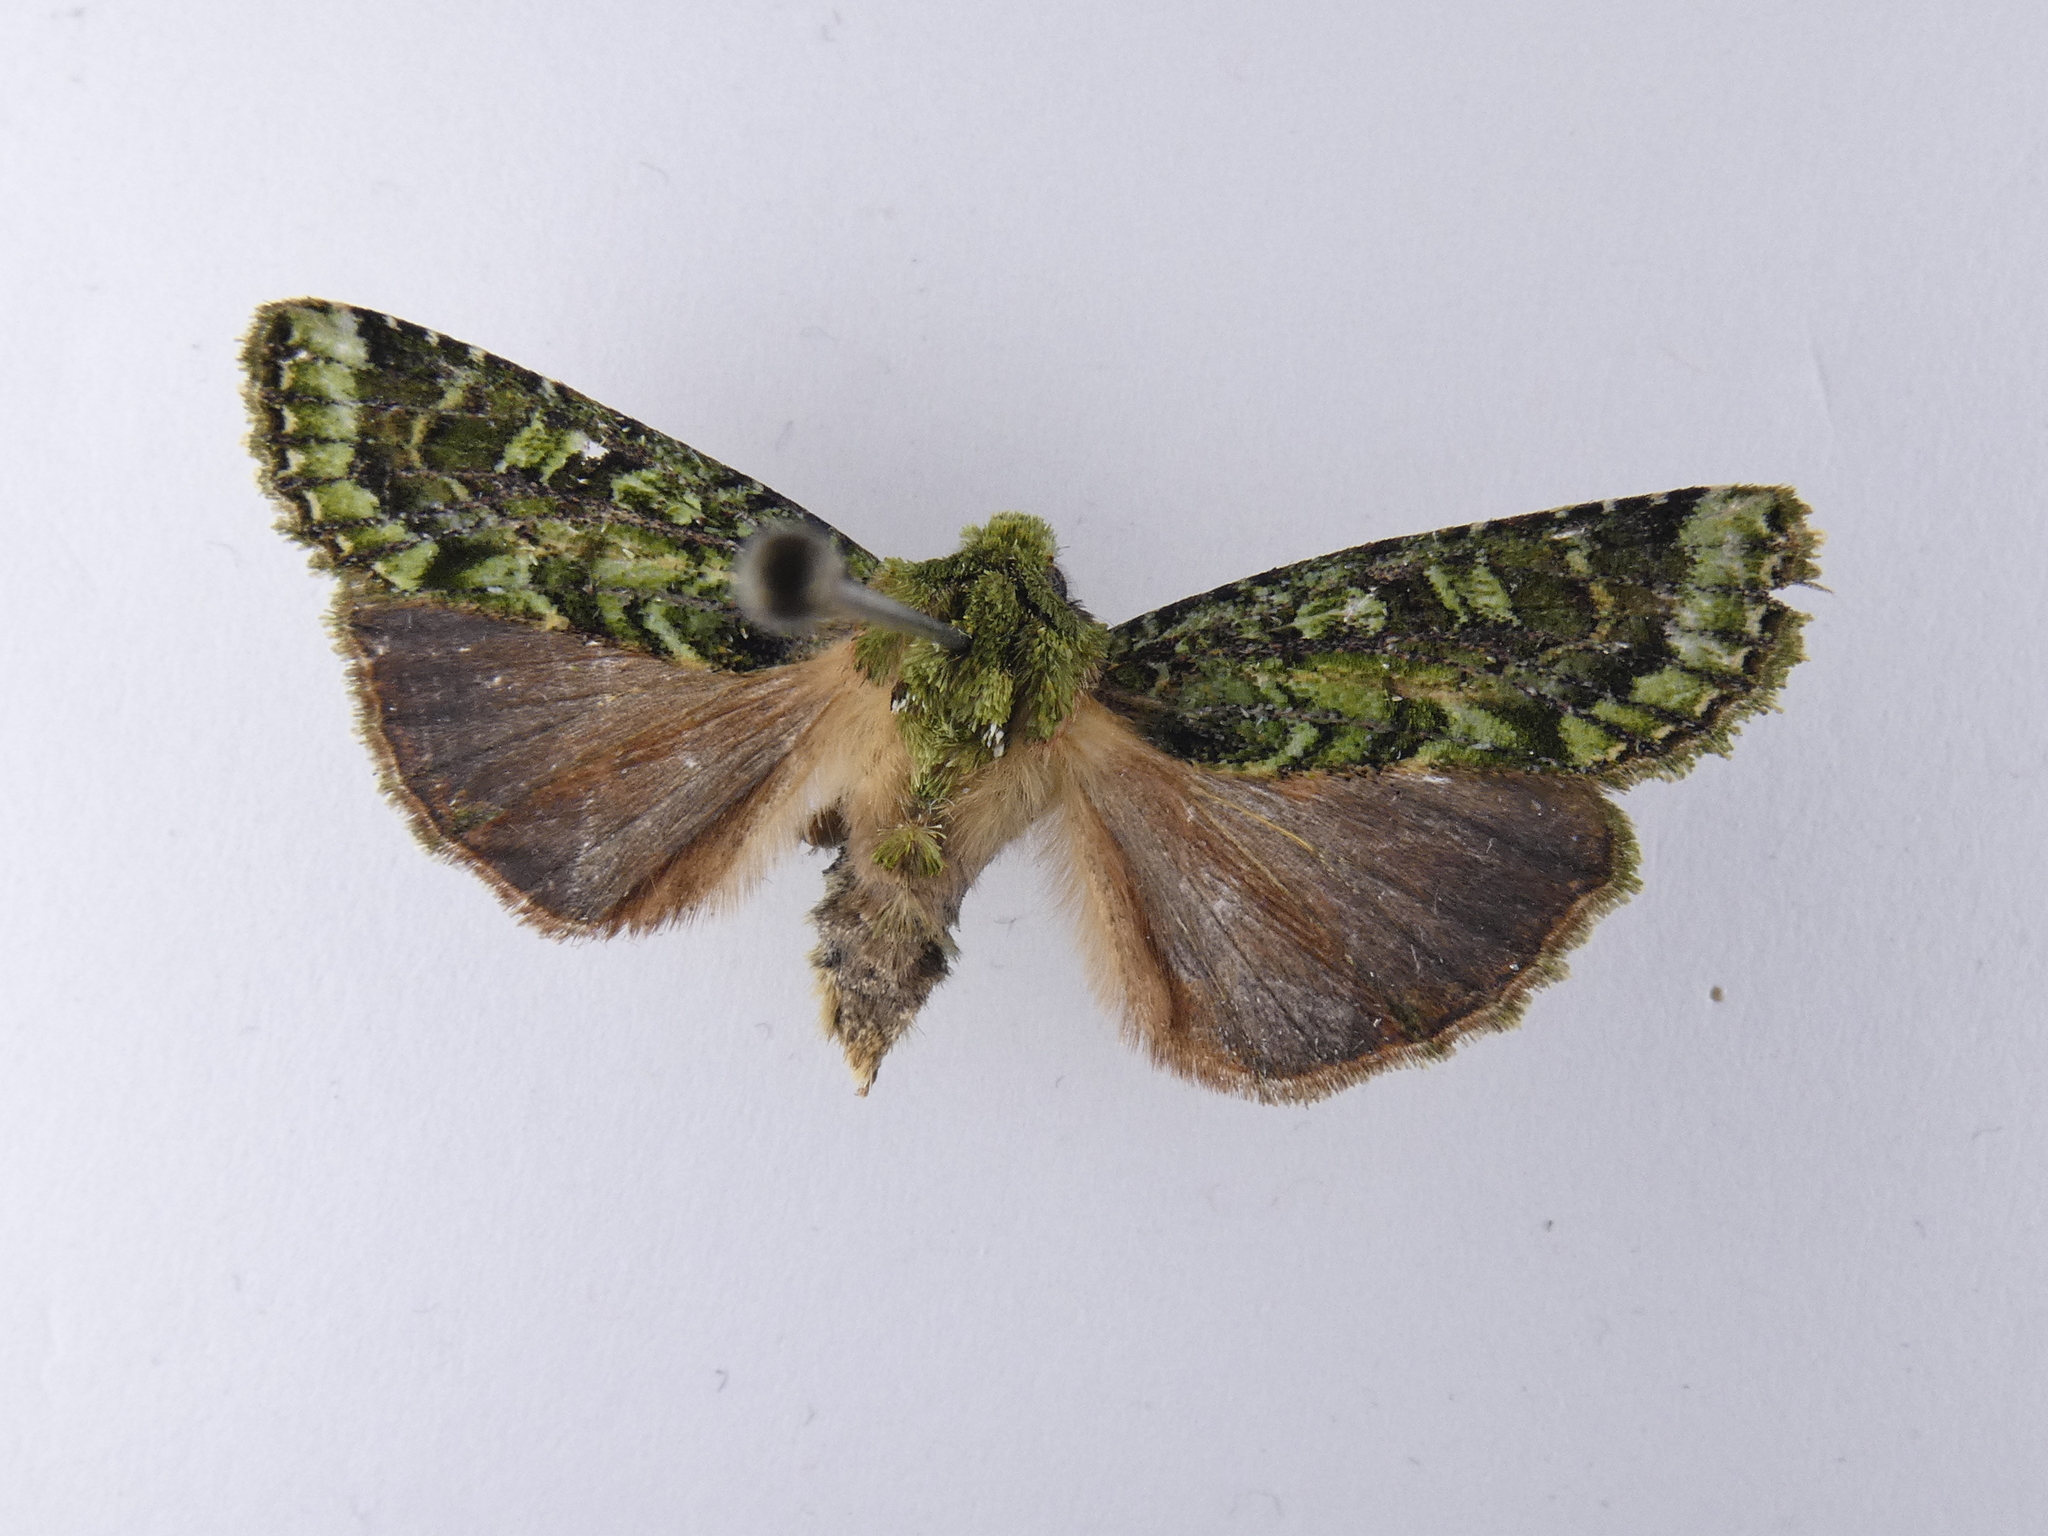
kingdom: Animalia
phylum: Arthropoda
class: Insecta
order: Lepidoptera
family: Noctuidae
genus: Feredayia
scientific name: Feredayia grammosa
